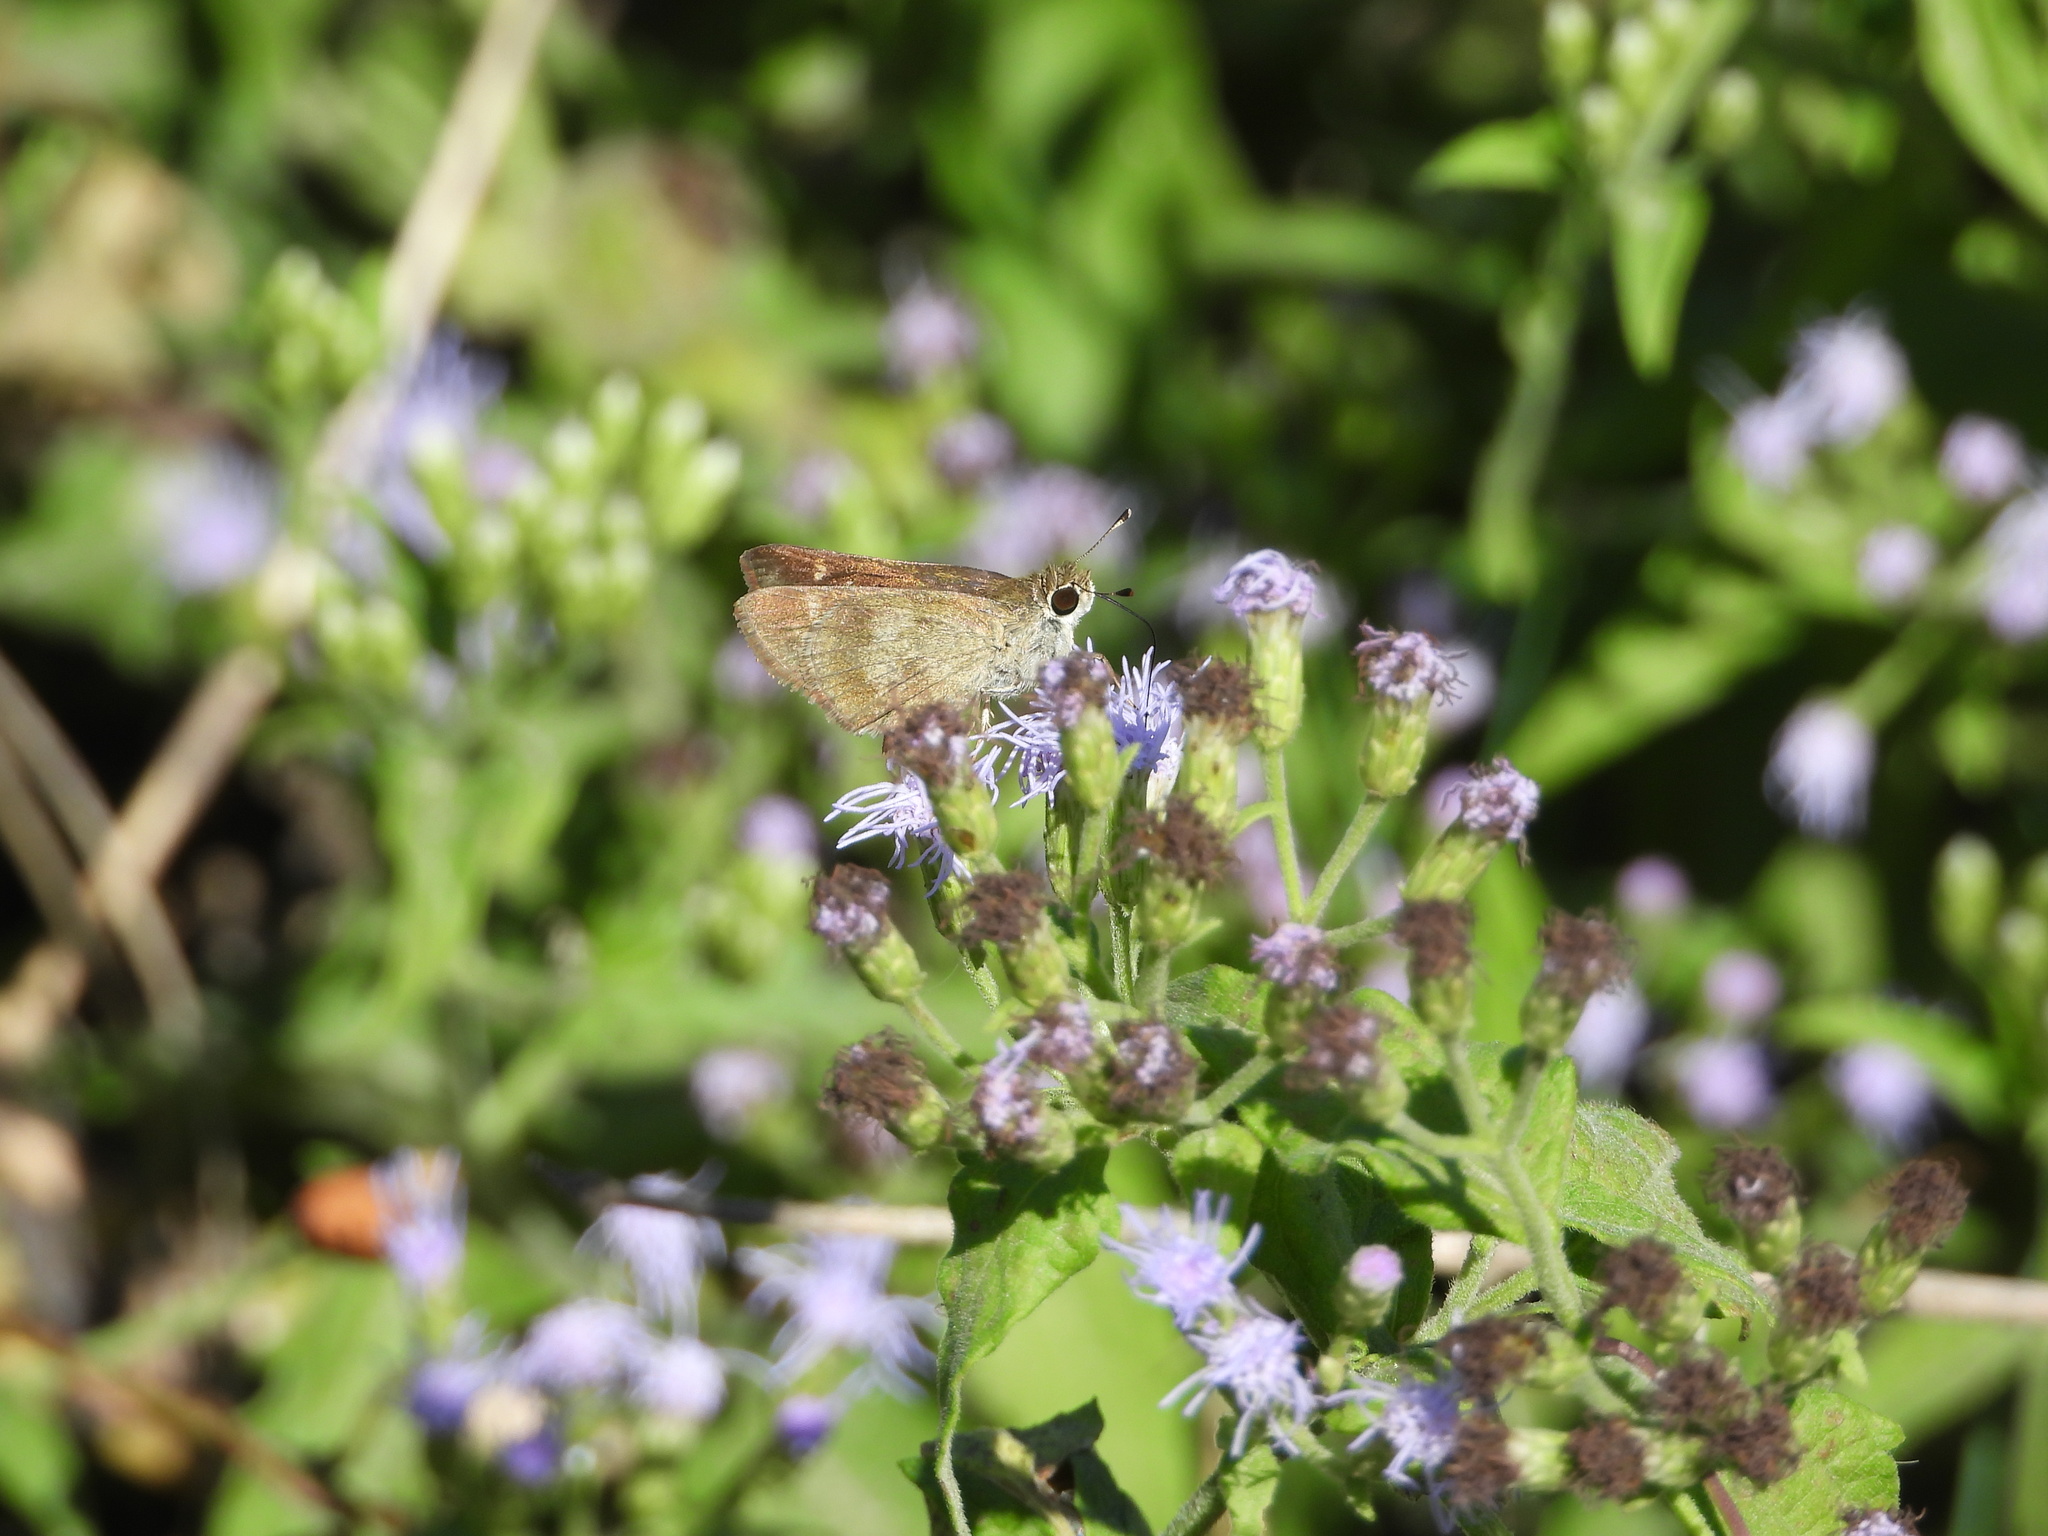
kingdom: Animalia
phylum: Arthropoda
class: Insecta
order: Lepidoptera
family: Hesperiidae
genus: Polites
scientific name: Polites vibex
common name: Whirlabout
